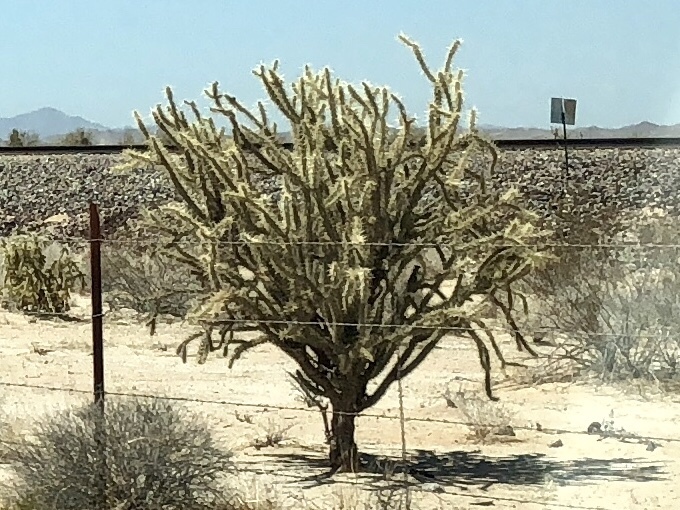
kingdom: Plantae
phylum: Tracheophyta
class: Magnoliopsida
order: Caryophyllales
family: Cactaceae
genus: Cylindropuntia
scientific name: Cylindropuntia acanthocarpa
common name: Buckhorn cholla
